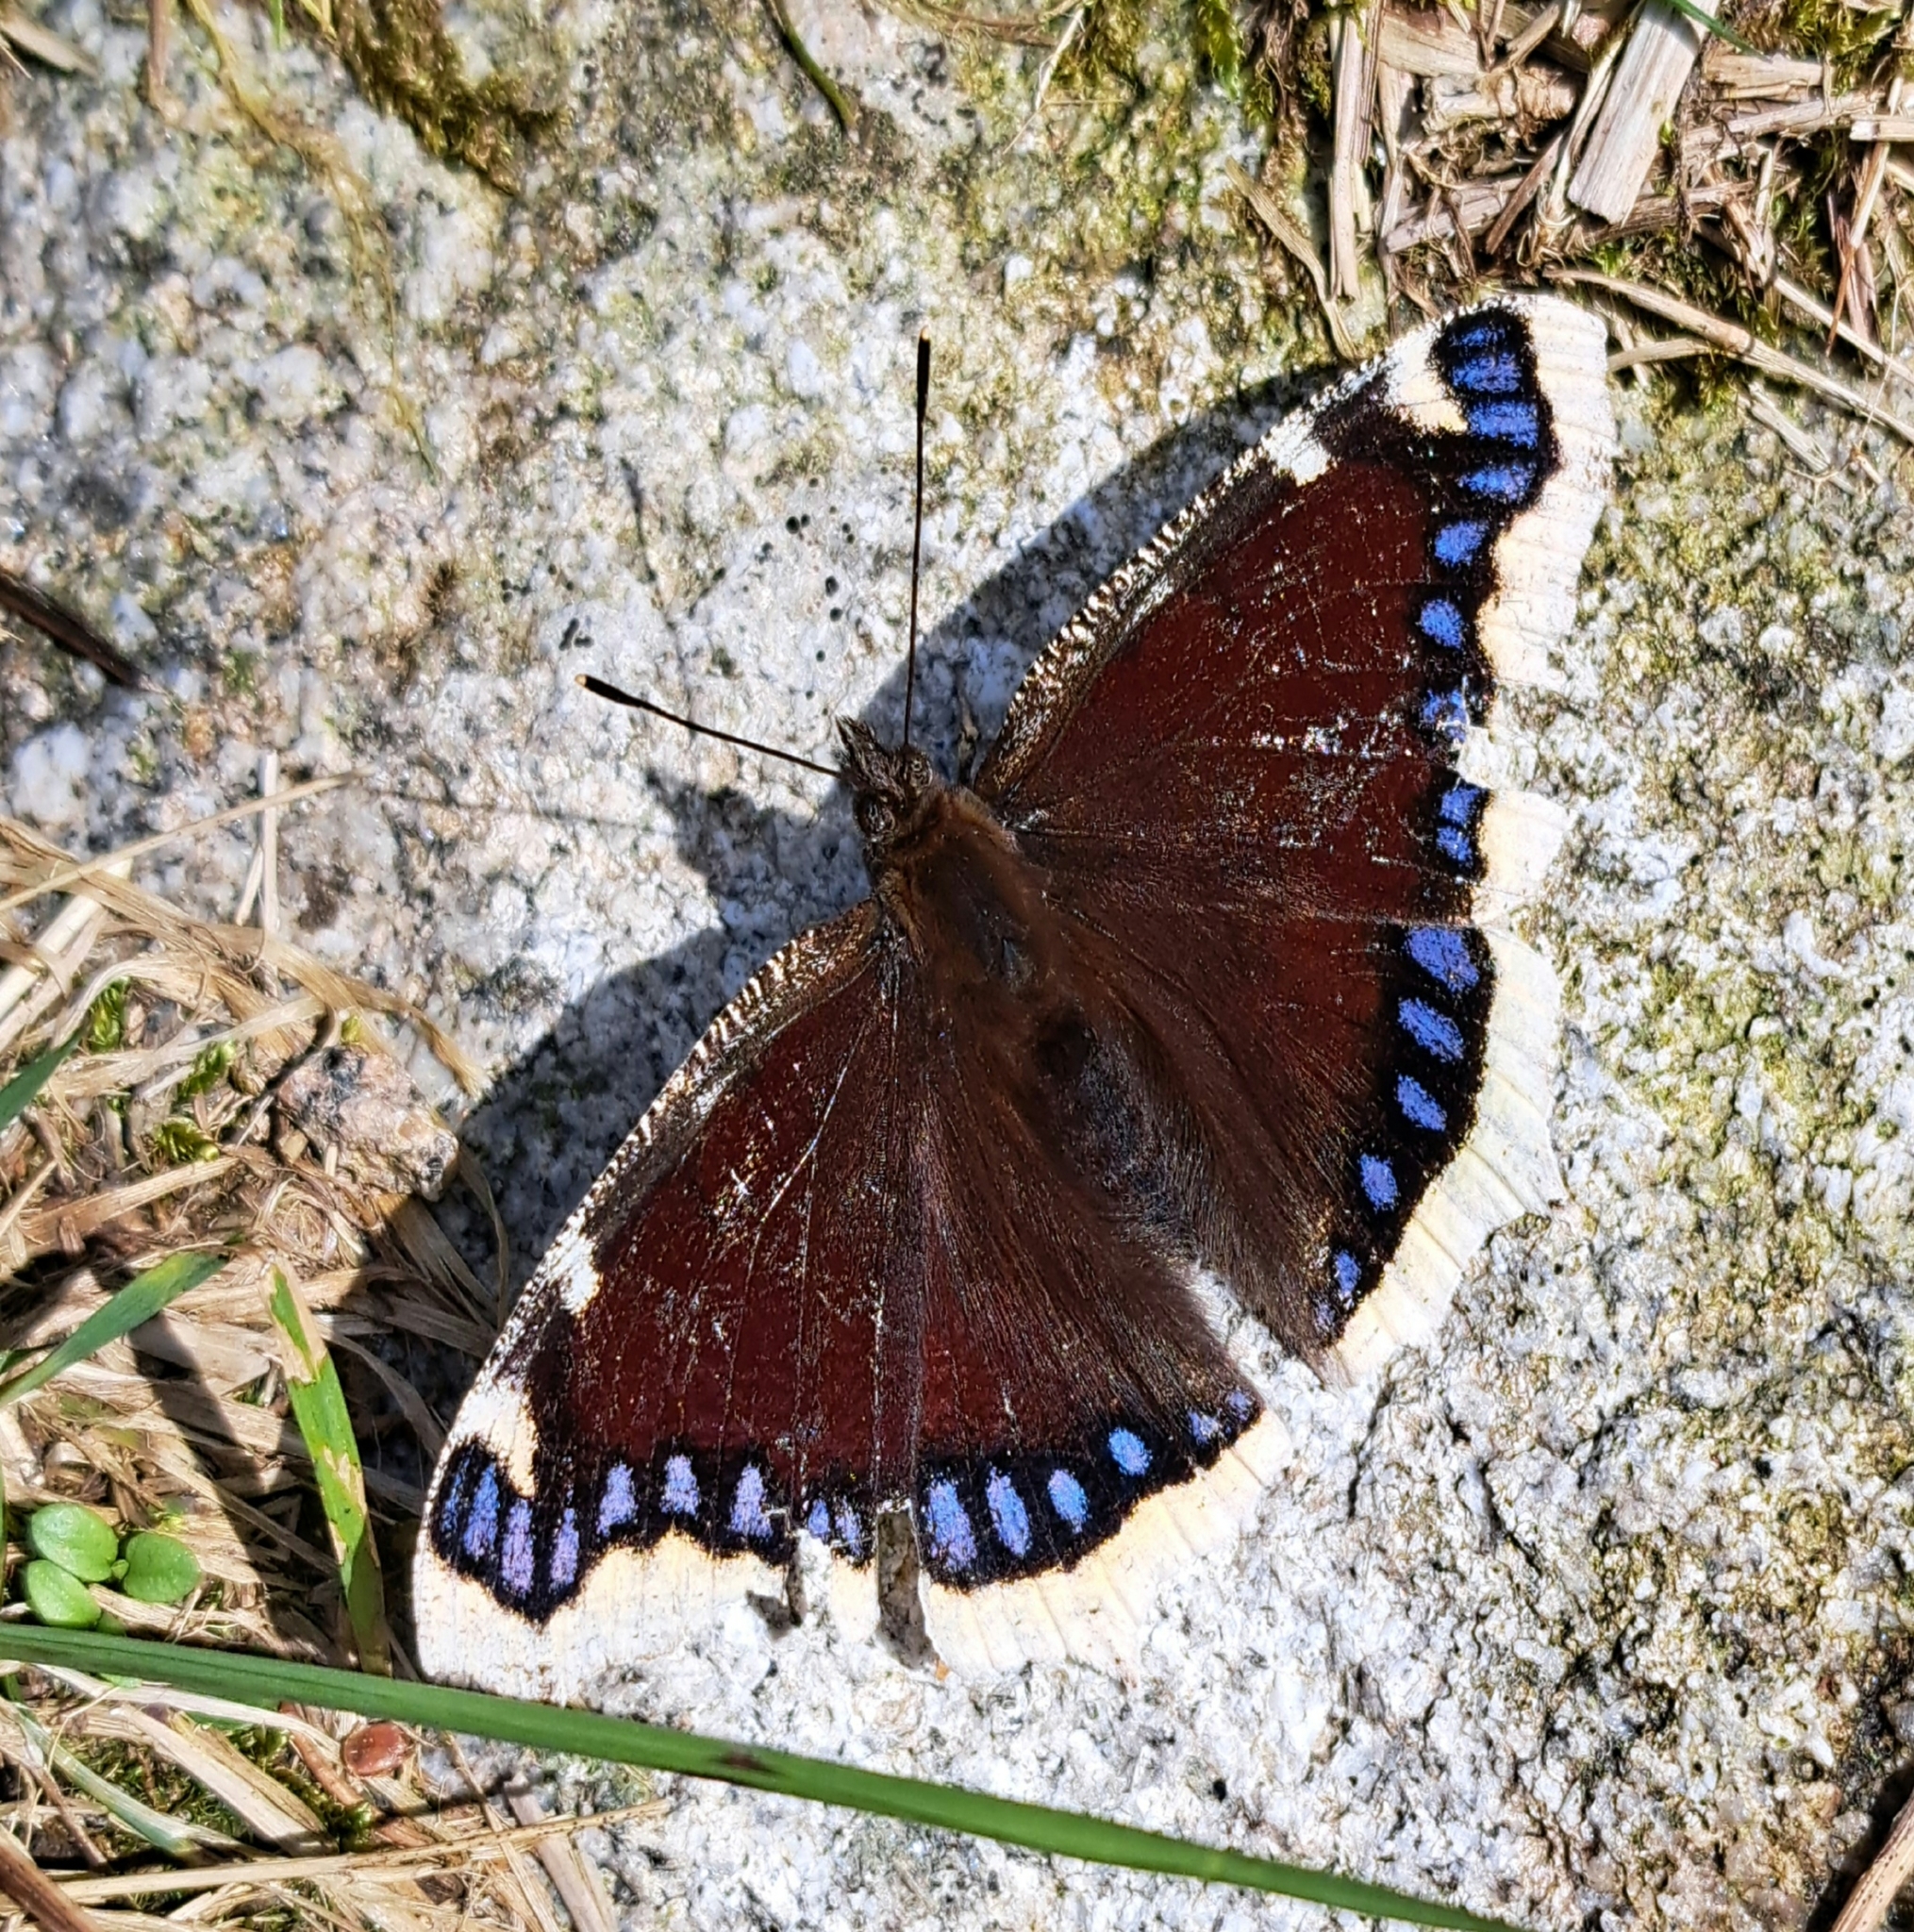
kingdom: Animalia
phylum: Arthropoda
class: Insecta
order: Lepidoptera
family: Nymphalidae
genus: Nymphalis
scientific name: Nymphalis antiopa
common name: Camberwell beauty
